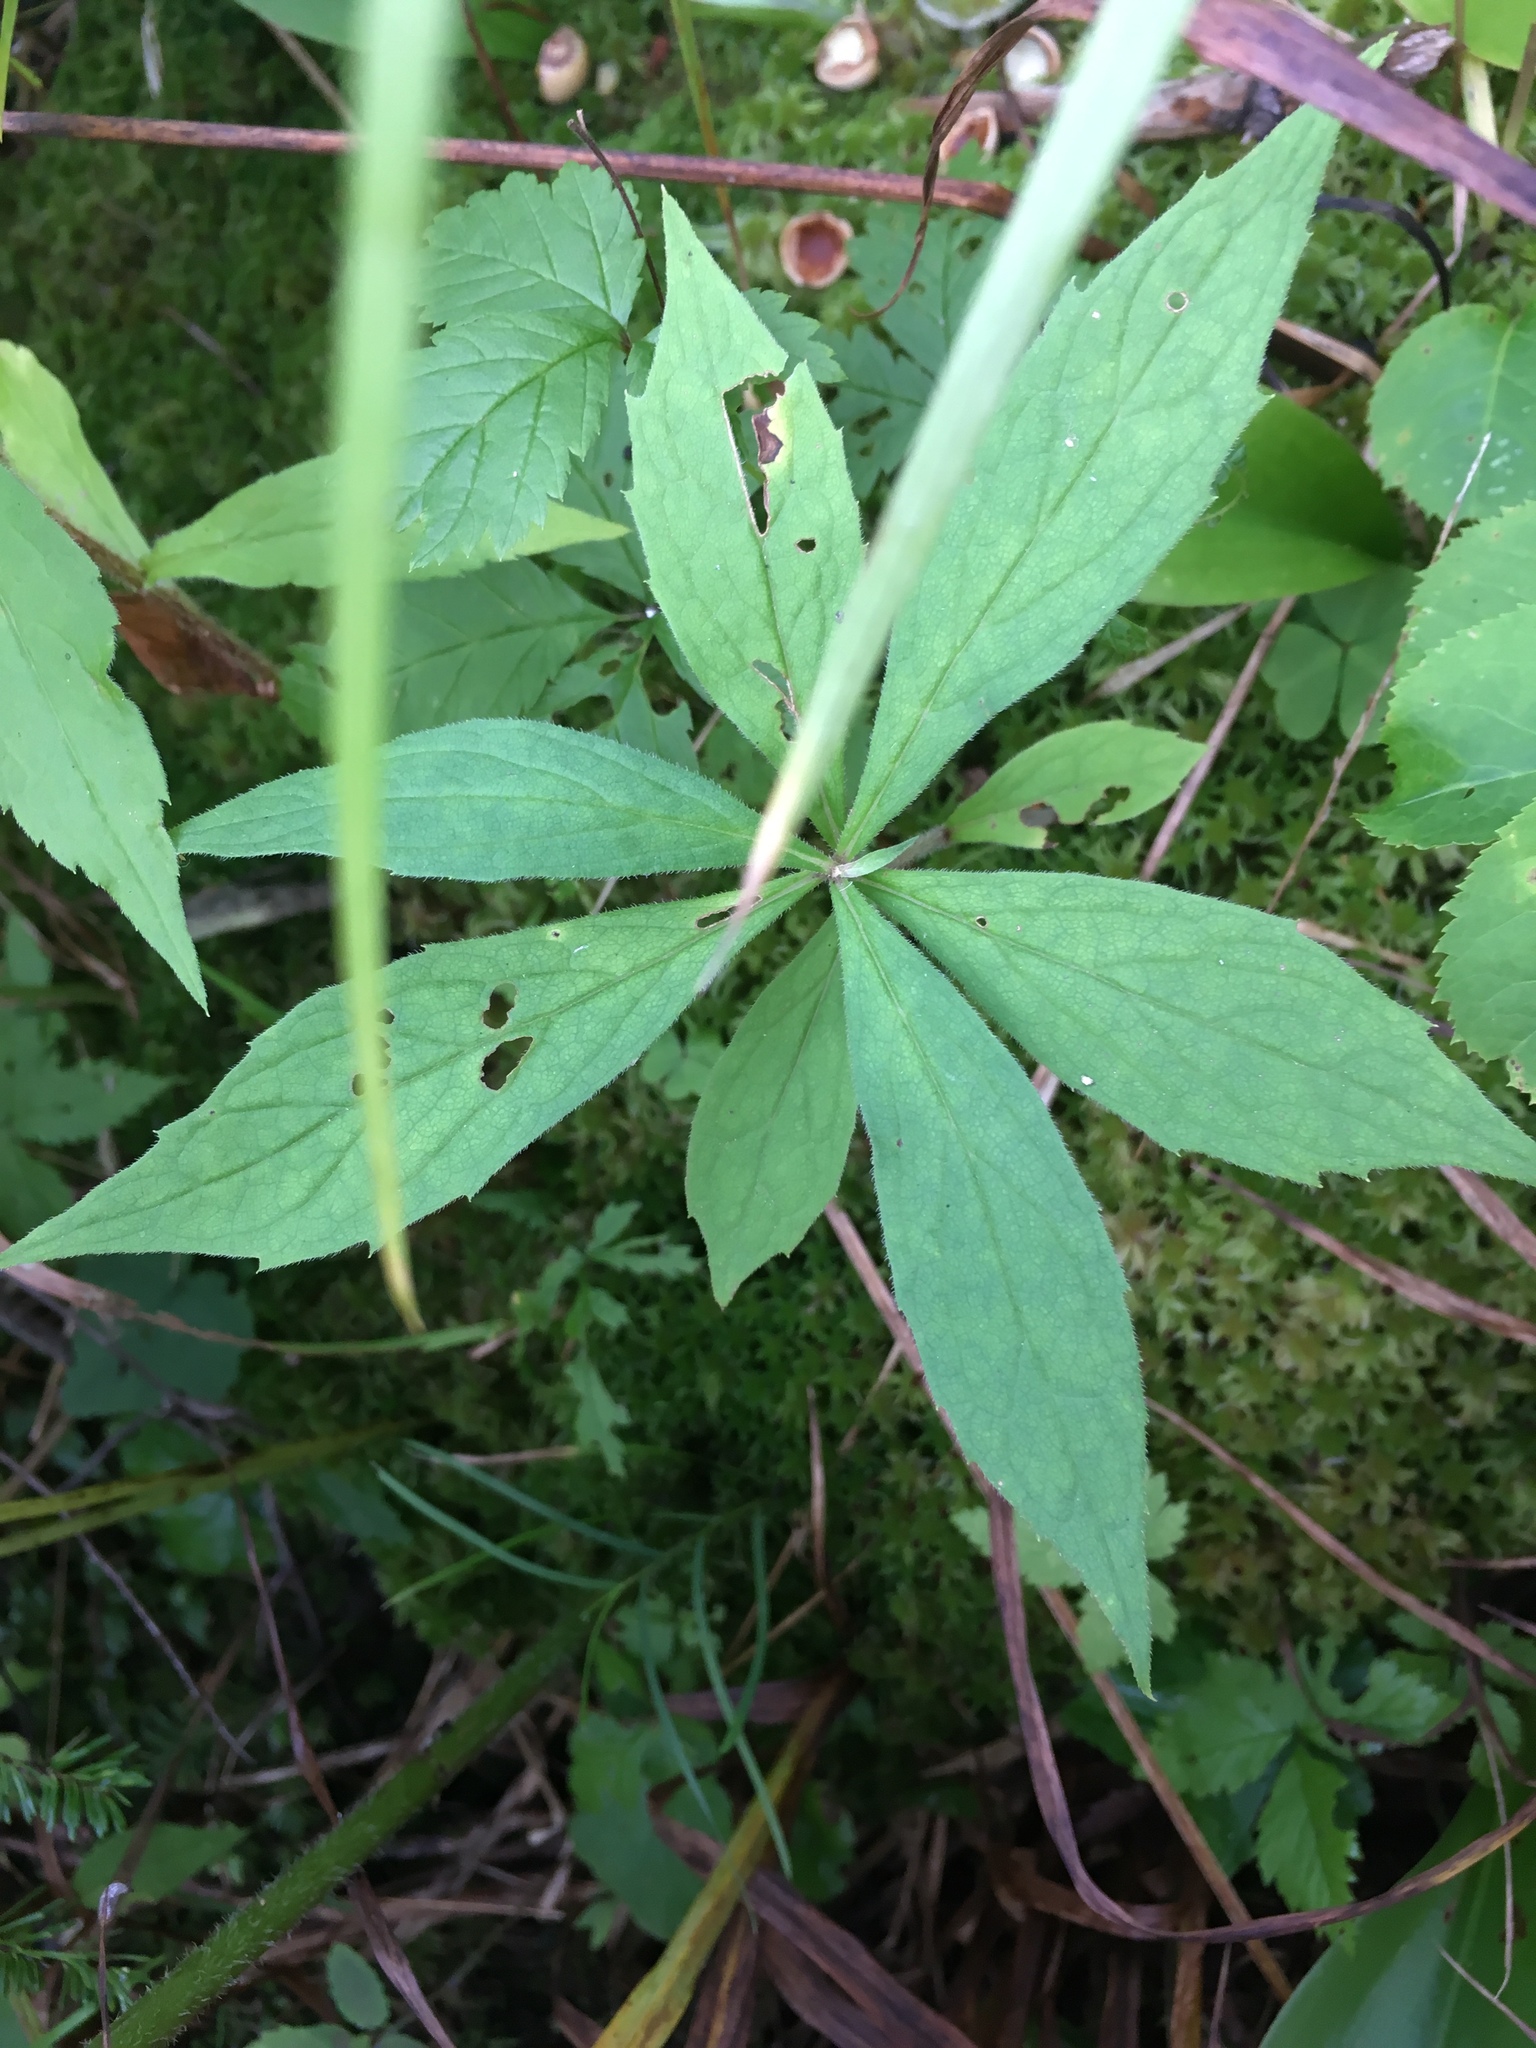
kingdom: Plantae
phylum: Tracheophyta
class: Magnoliopsida
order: Asterales
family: Asteraceae
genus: Oclemena
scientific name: Oclemena acuminata
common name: Mountain aster
